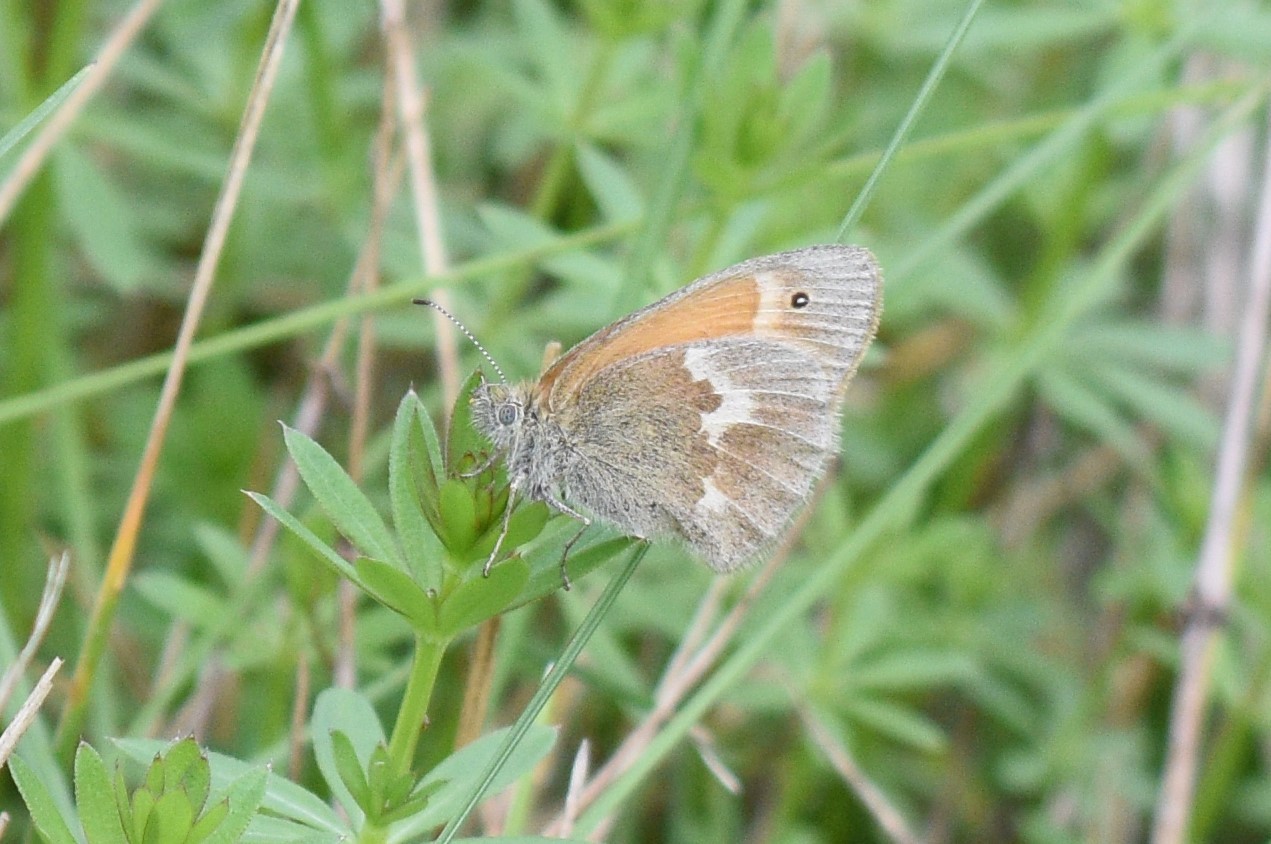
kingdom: Animalia
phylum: Arthropoda
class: Insecta
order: Lepidoptera
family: Nymphalidae
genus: Coenonympha
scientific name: Coenonympha california
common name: Common ringlet
